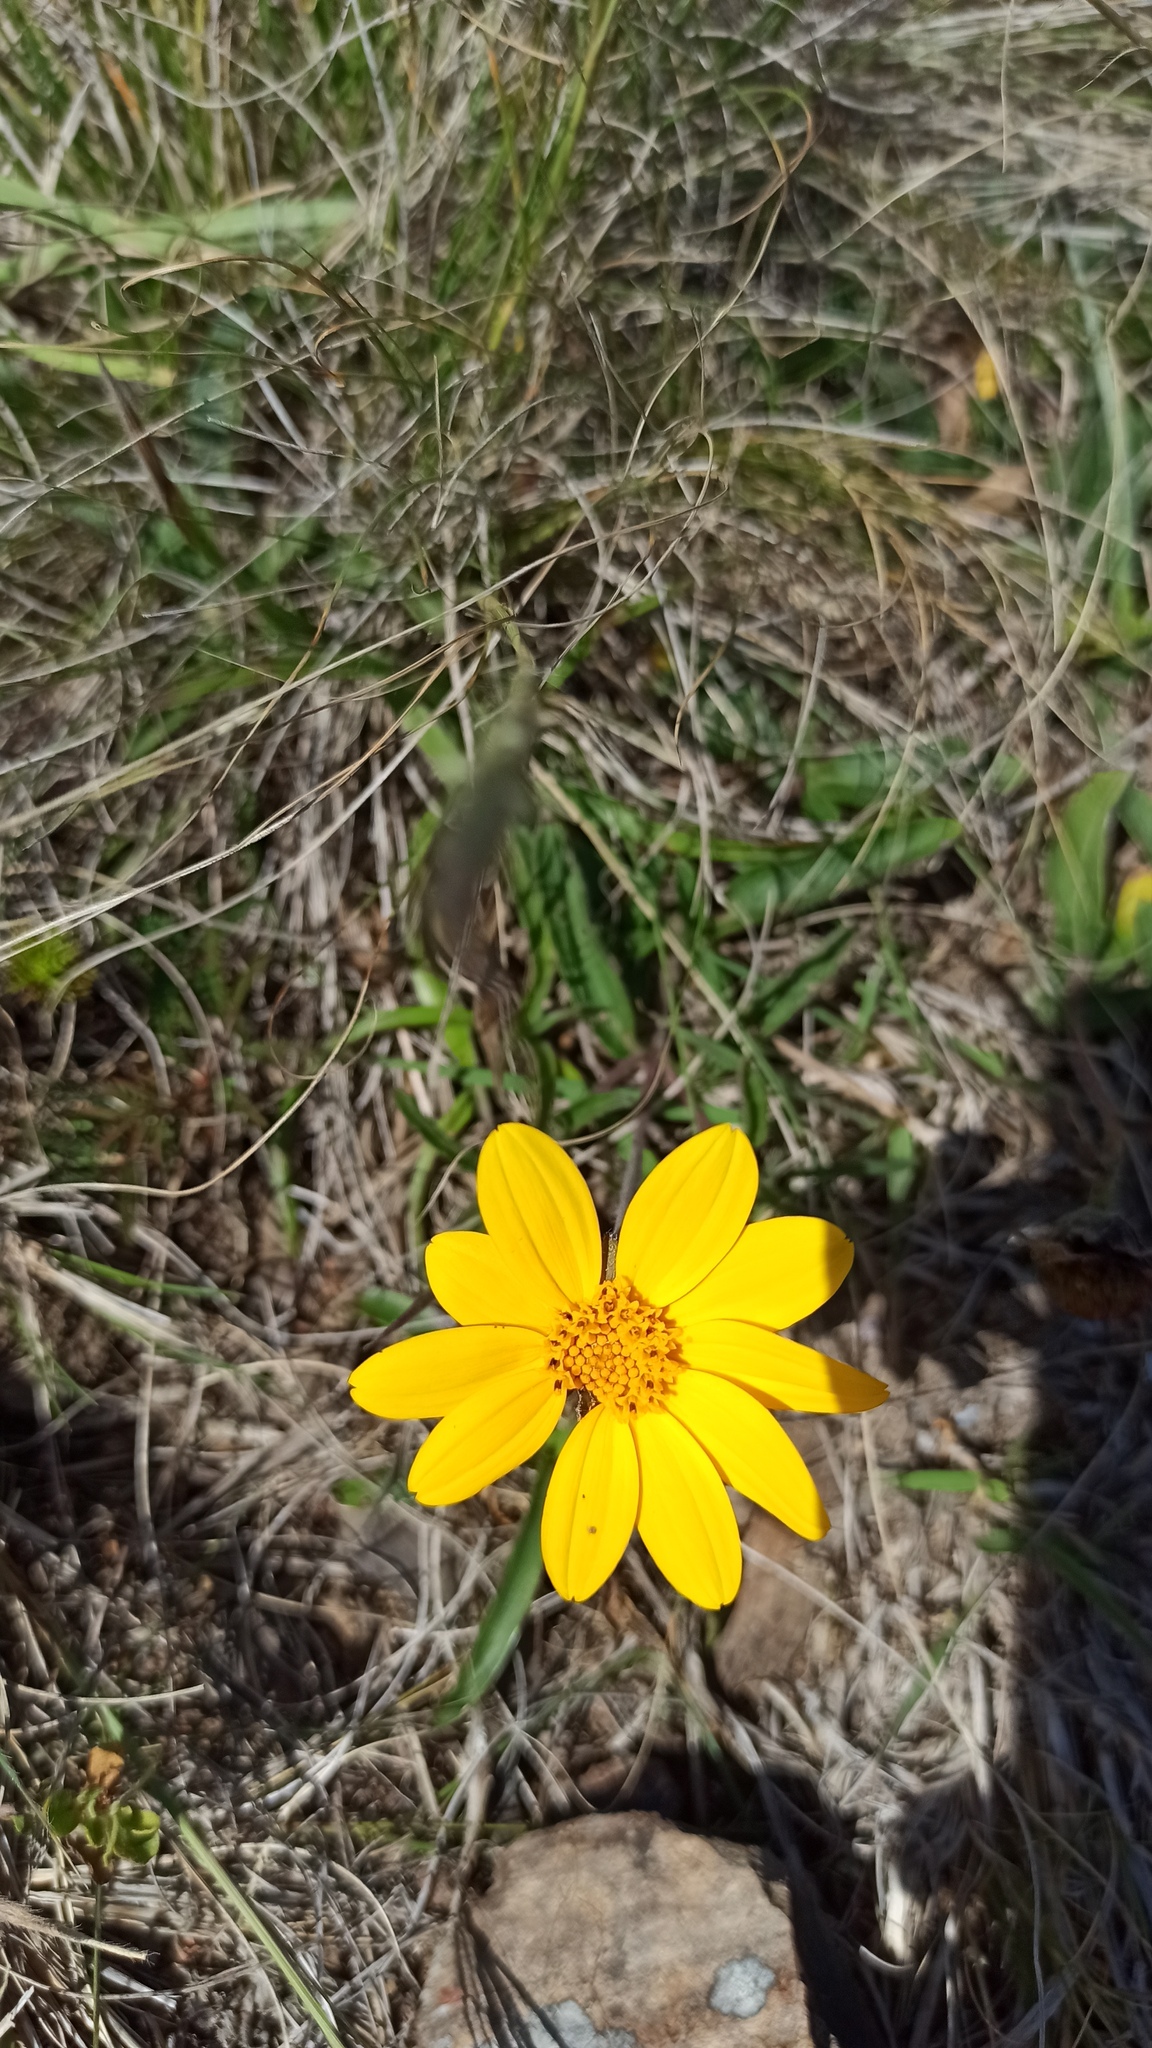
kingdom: Plantae
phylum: Tracheophyta
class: Magnoliopsida
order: Asterales
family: Asteraceae
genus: Wedelia
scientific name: Wedelia montevidensis
